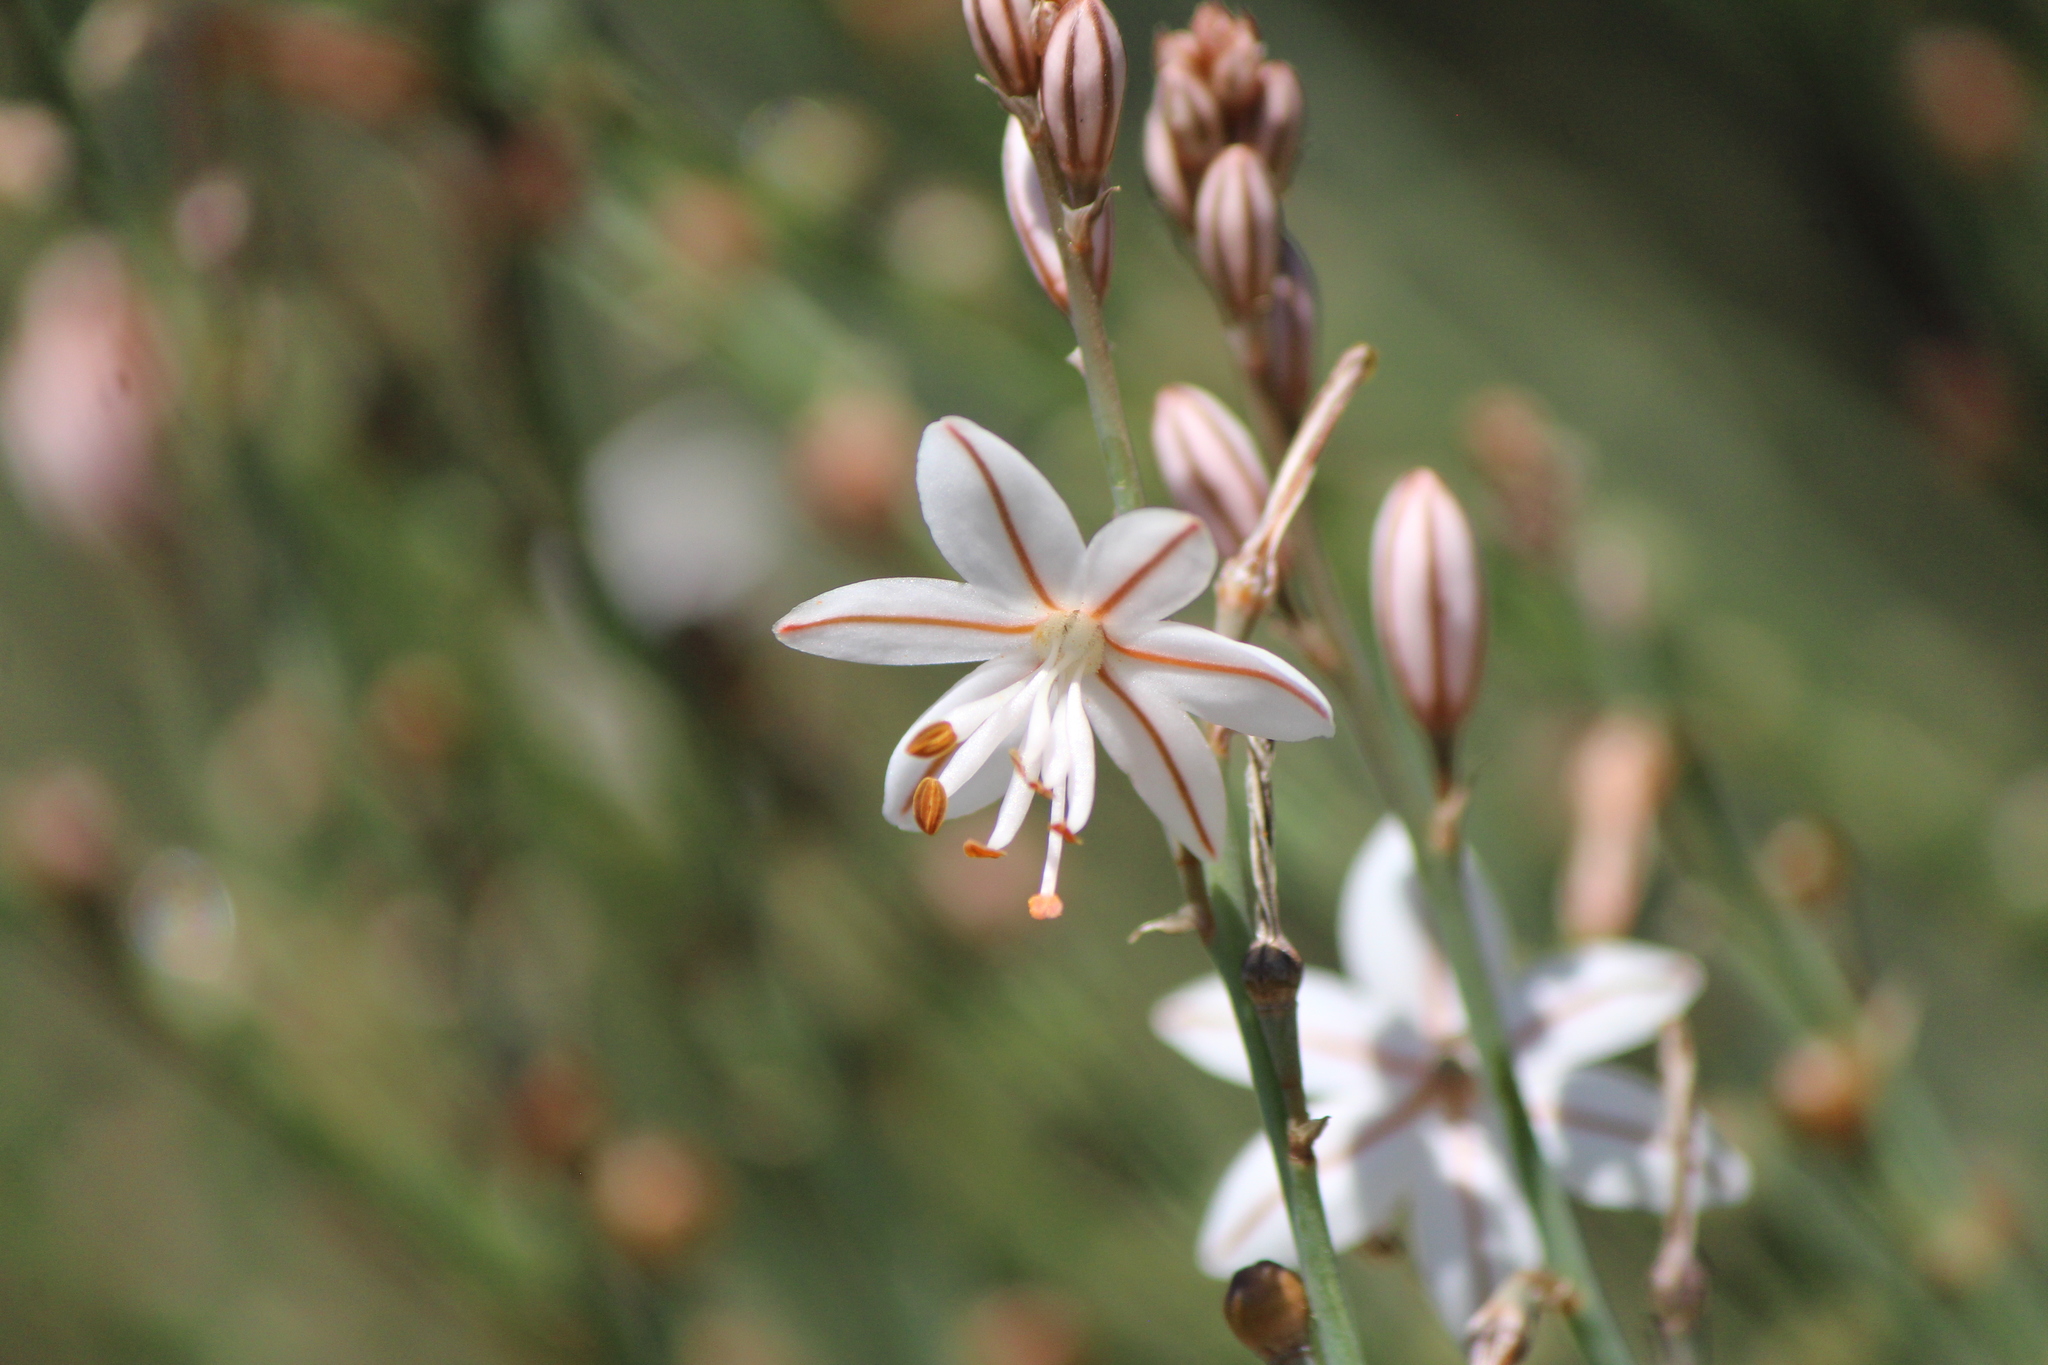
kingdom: Plantae
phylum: Tracheophyta
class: Liliopsida
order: Asparagales
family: Asphodelaceae
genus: Asphodelus
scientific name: Asphodelus fistulosus
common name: Onionweed
